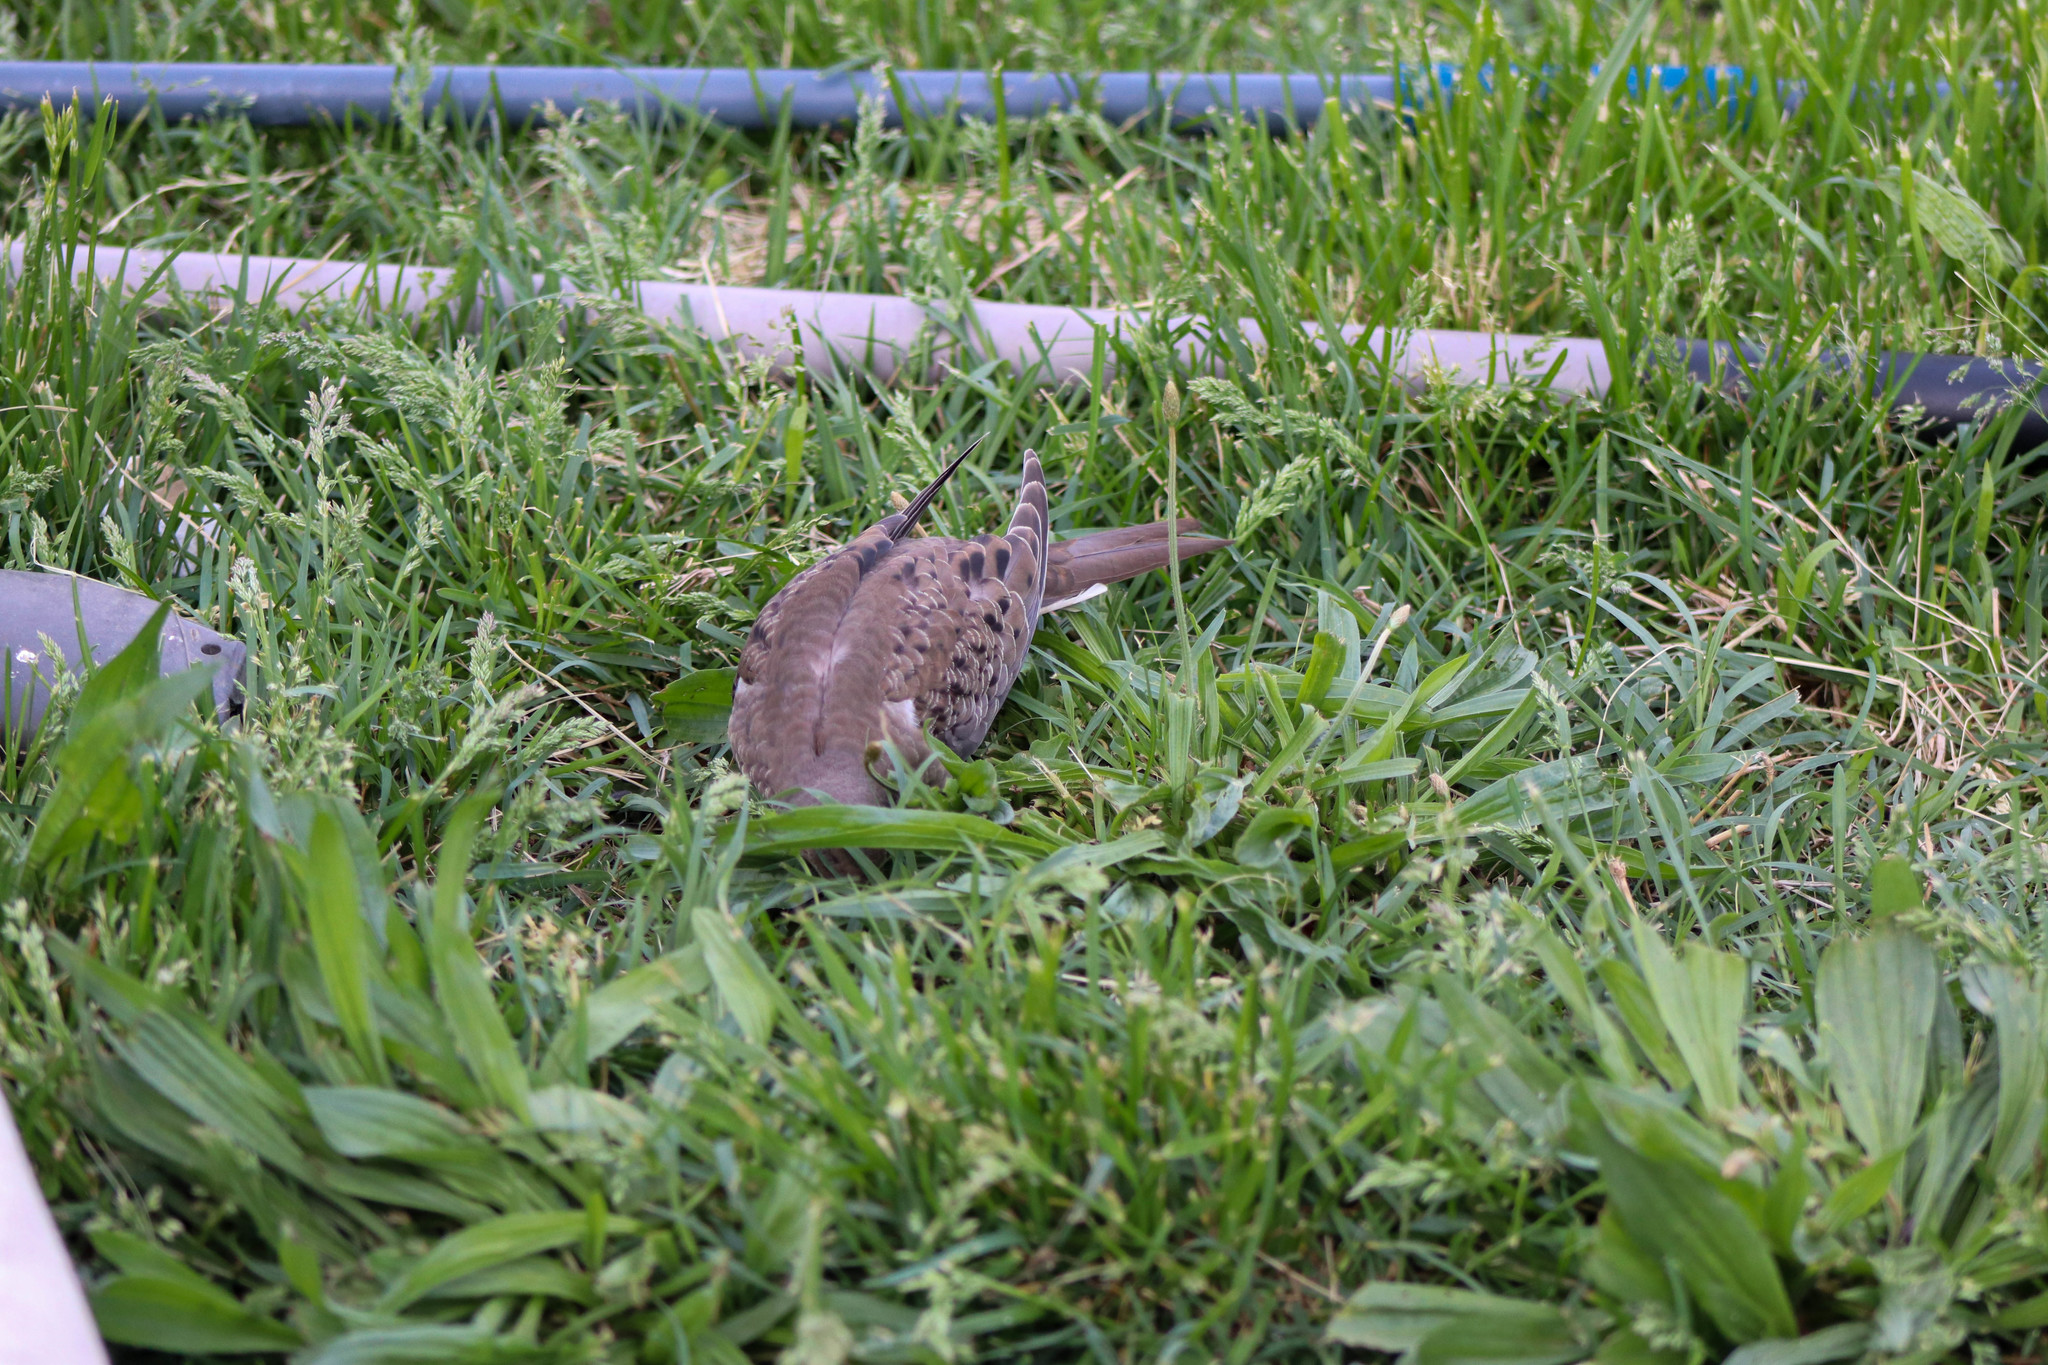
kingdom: Animalia
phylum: Chordata
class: Aves
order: Columbiformes
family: Columbidae
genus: Zenaida
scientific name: Zenaida macroura
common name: Mourning dove
